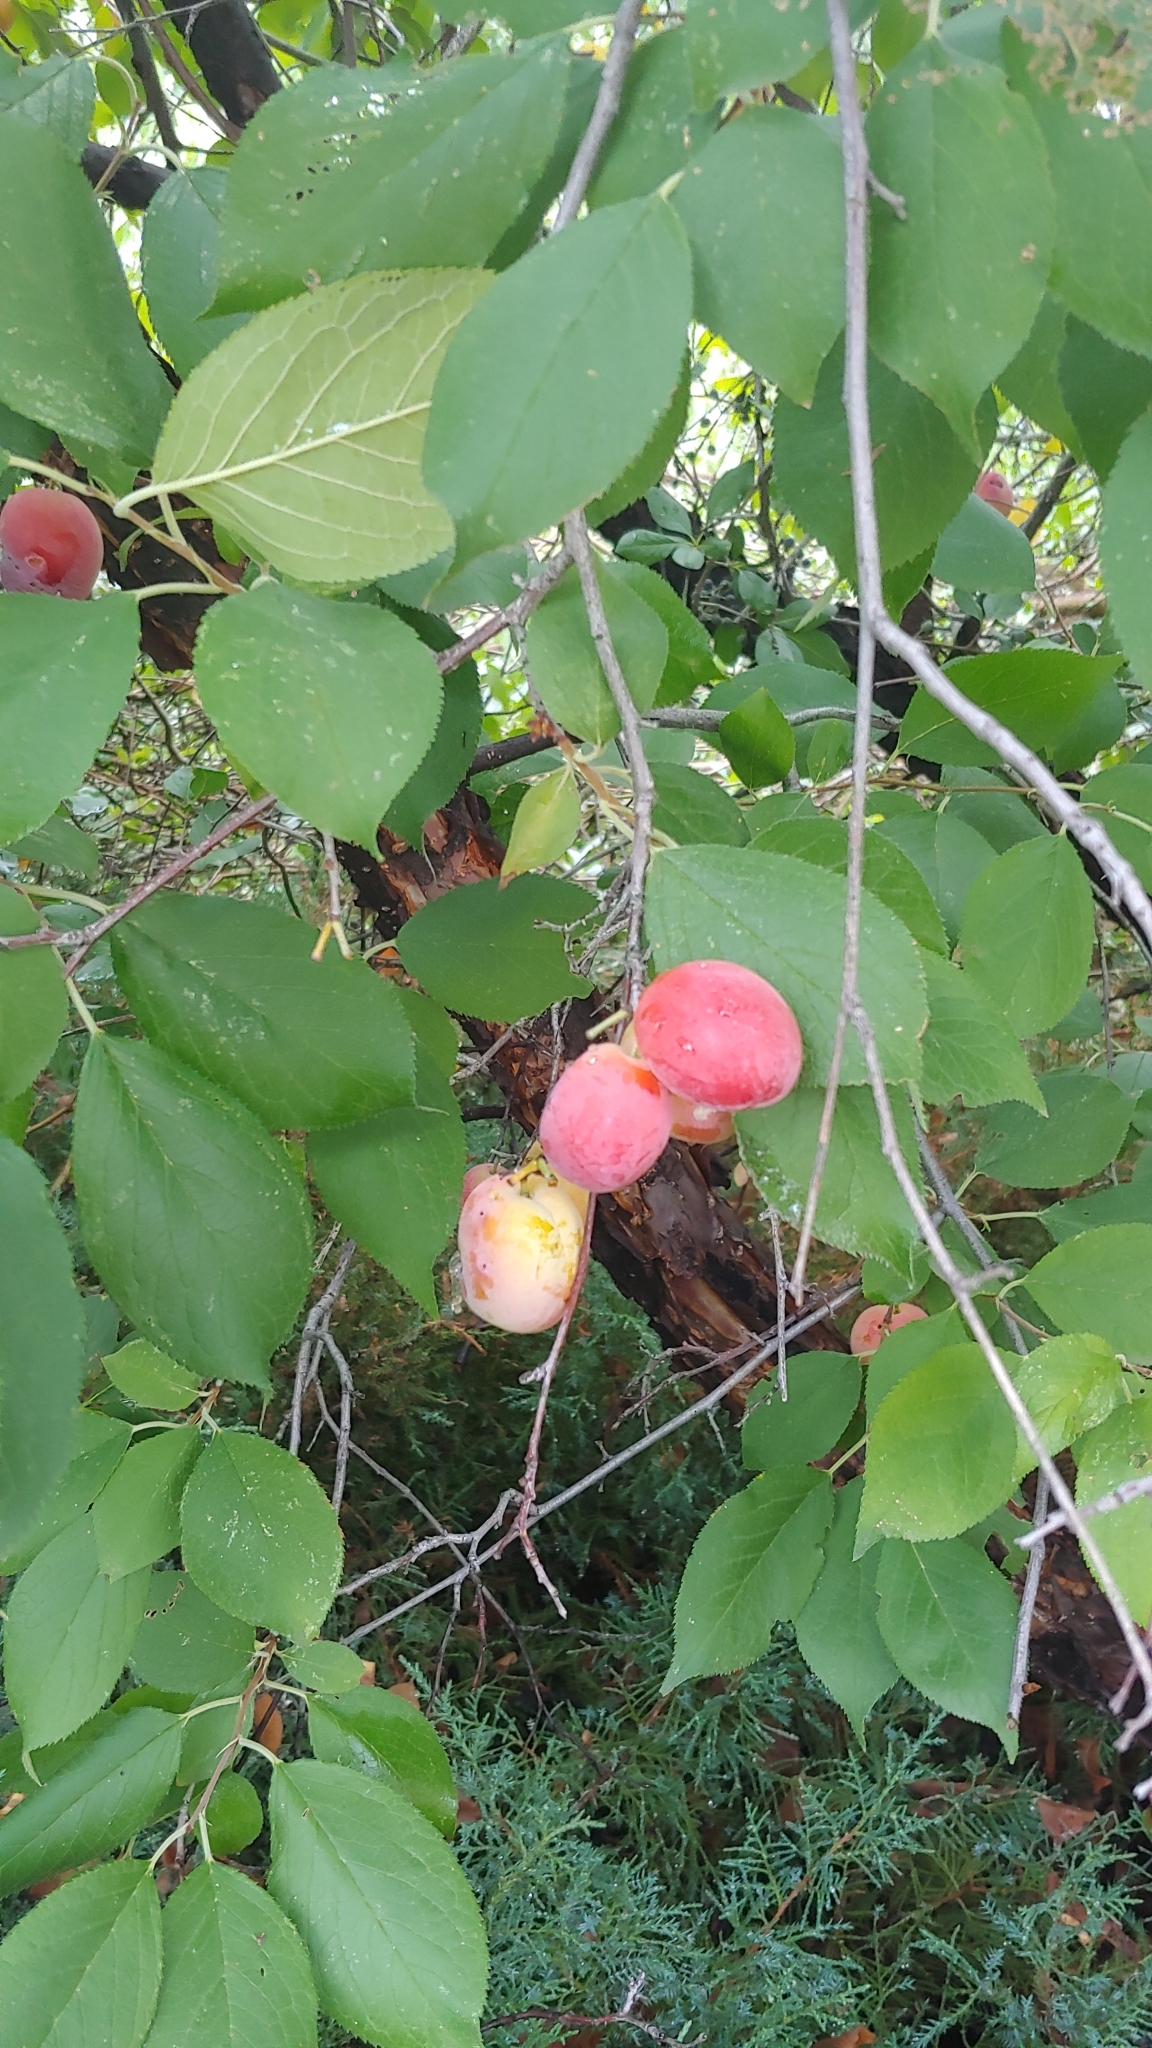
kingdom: Plantae
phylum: Tracheophyta
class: Magnoliopsida
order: Rosales
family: Rosaceae
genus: Prunus
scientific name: Prunus americana
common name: American plum
